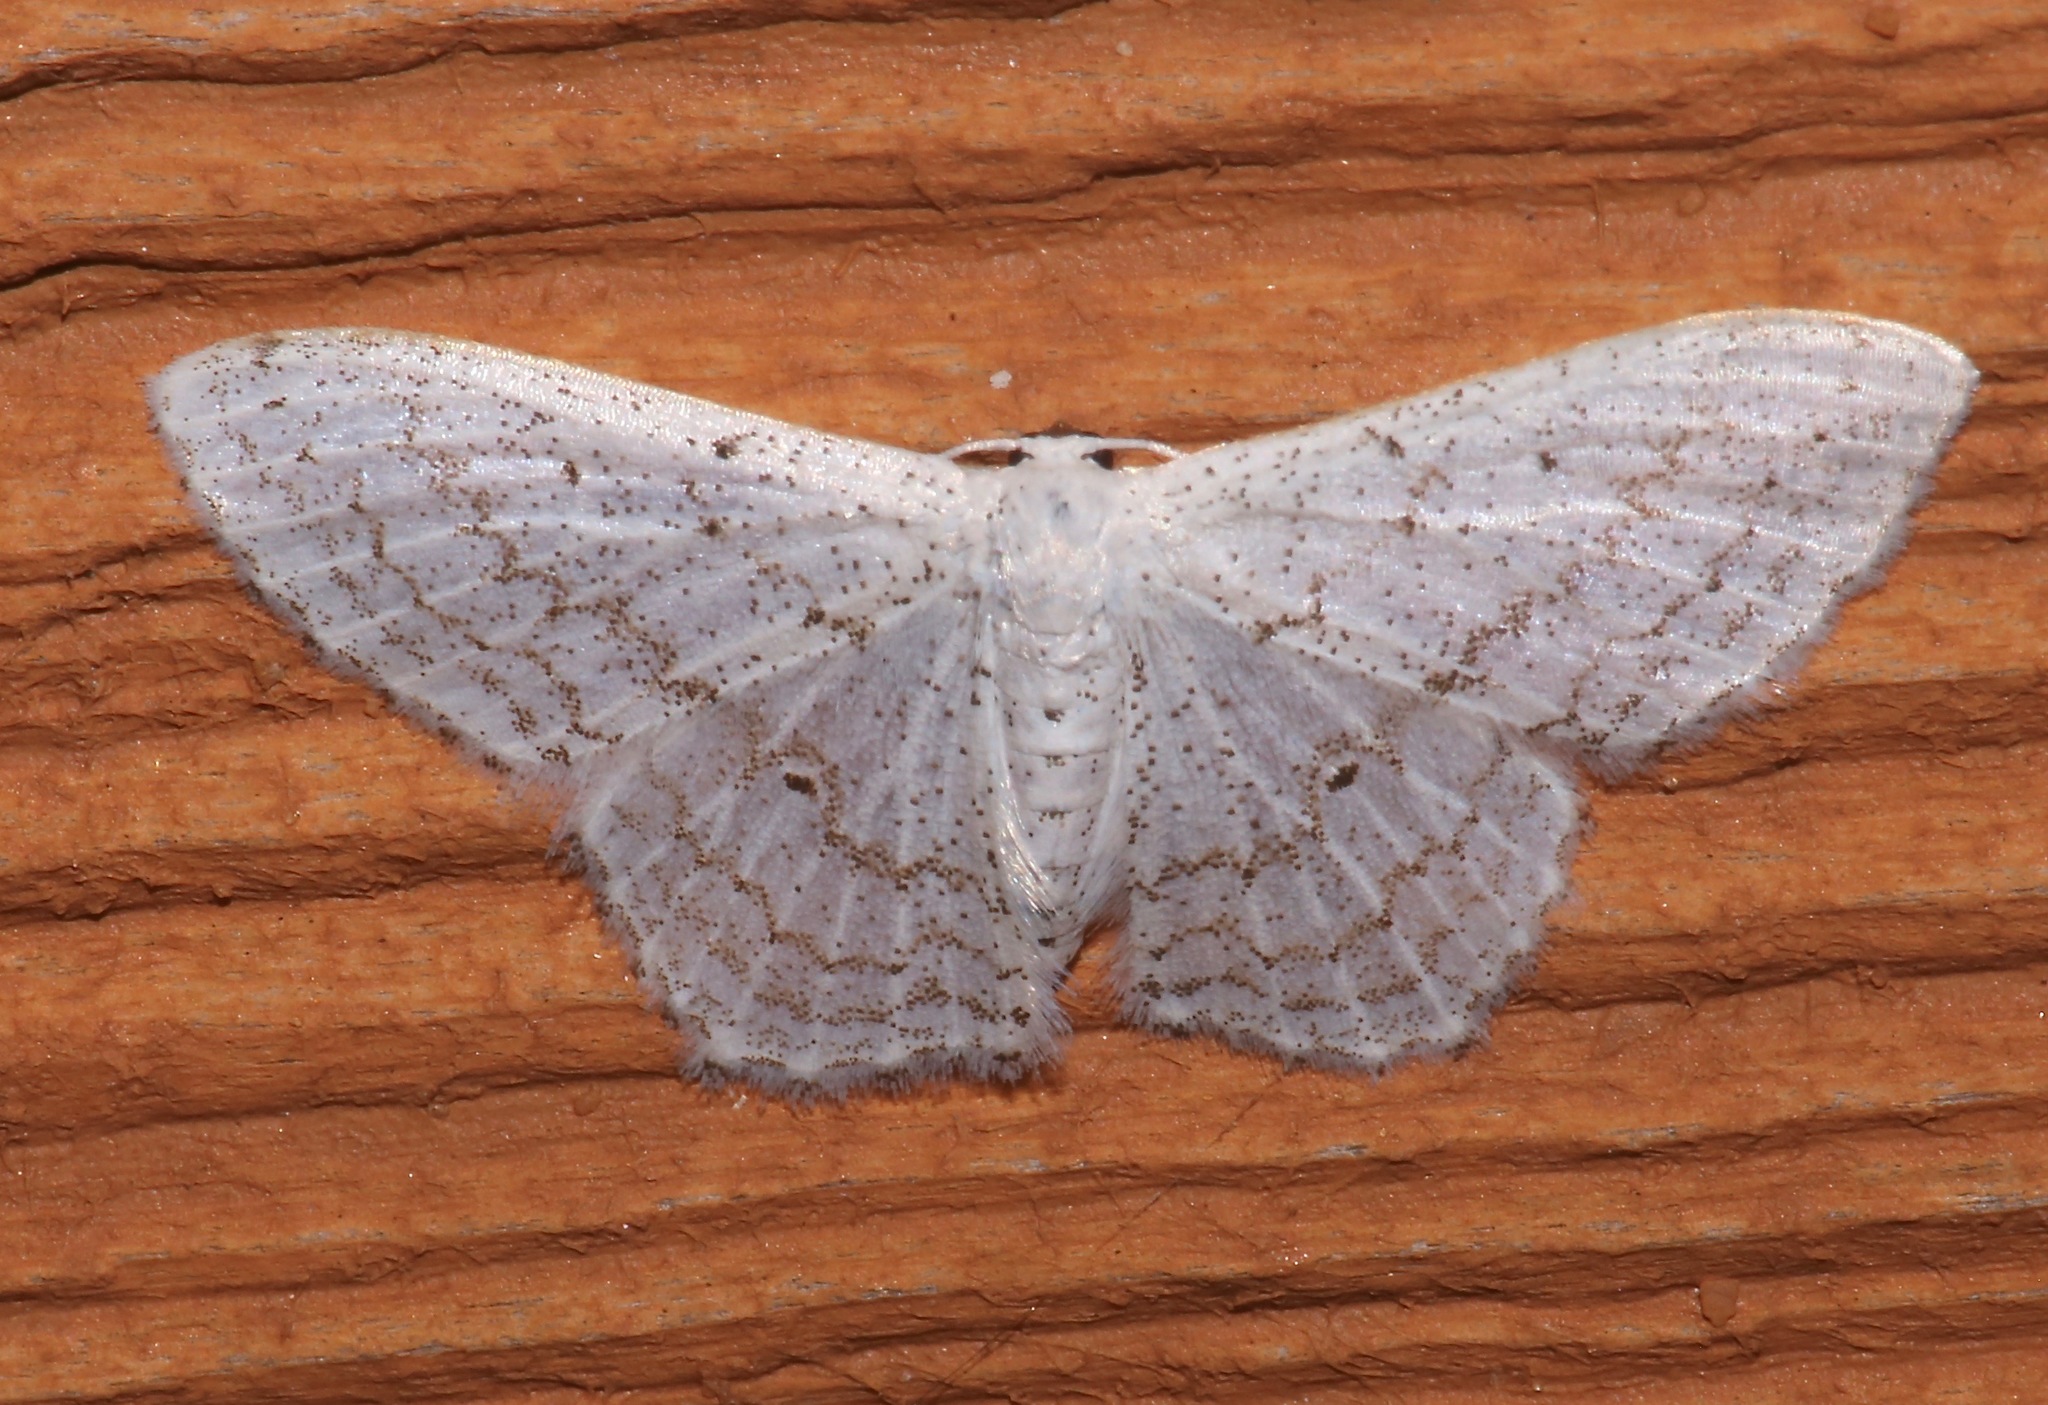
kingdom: Animalia
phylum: Arthropoda
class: Insecta
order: Lepidoptera
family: Geometridae
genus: Idaea
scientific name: Idaea tacturata
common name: Dot-lined wave
